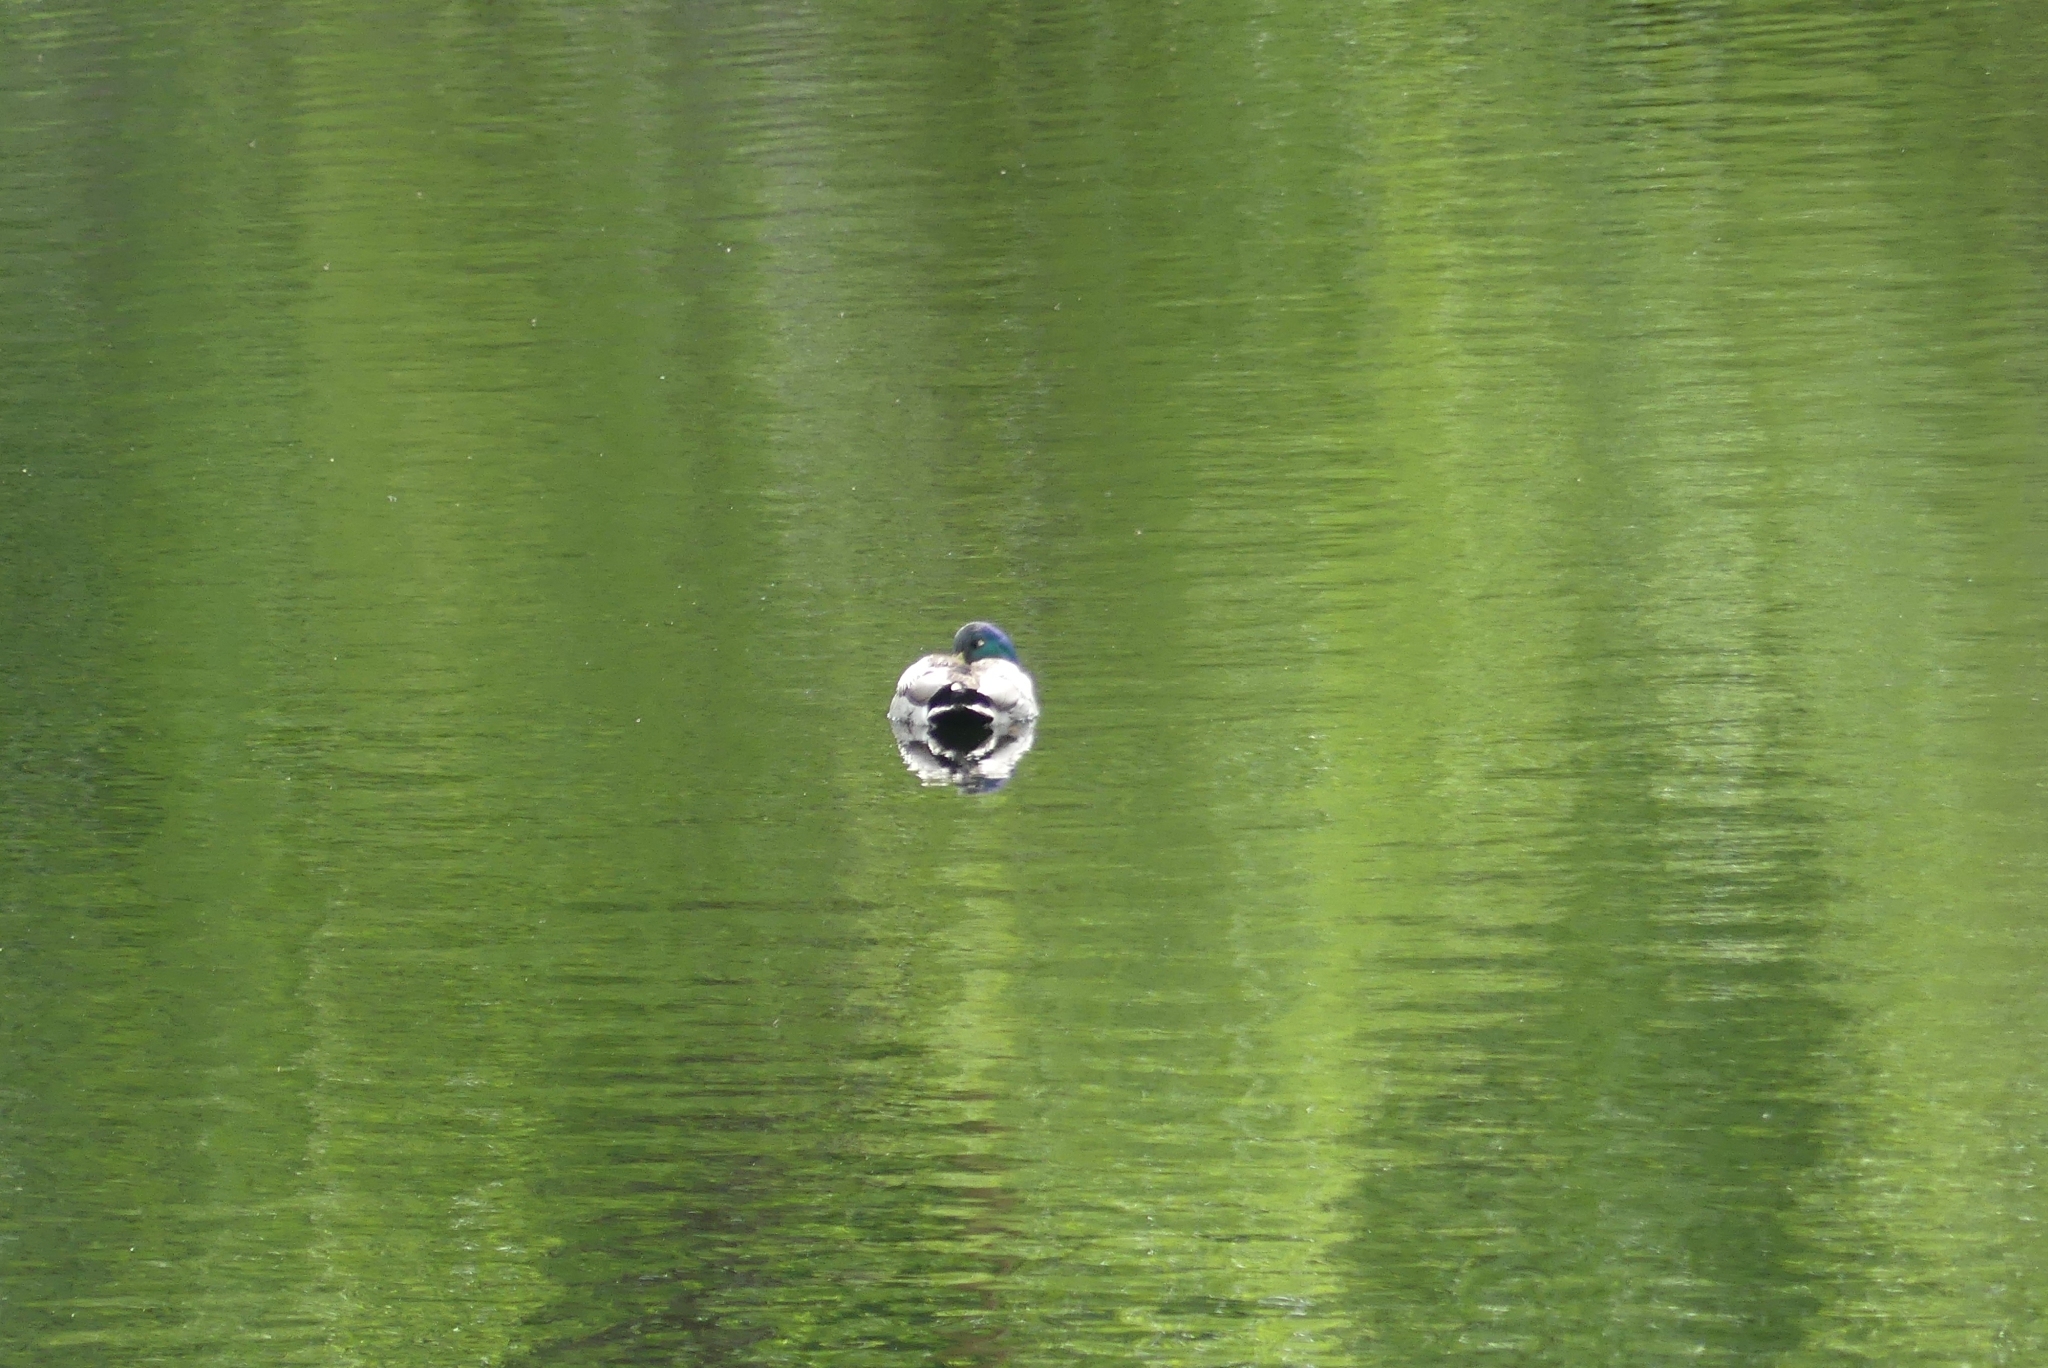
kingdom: Animalia
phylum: Chordata
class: Aves
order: Anseriformes
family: Anatidae
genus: Anas
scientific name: Anas platyrhynchos
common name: Mallard
